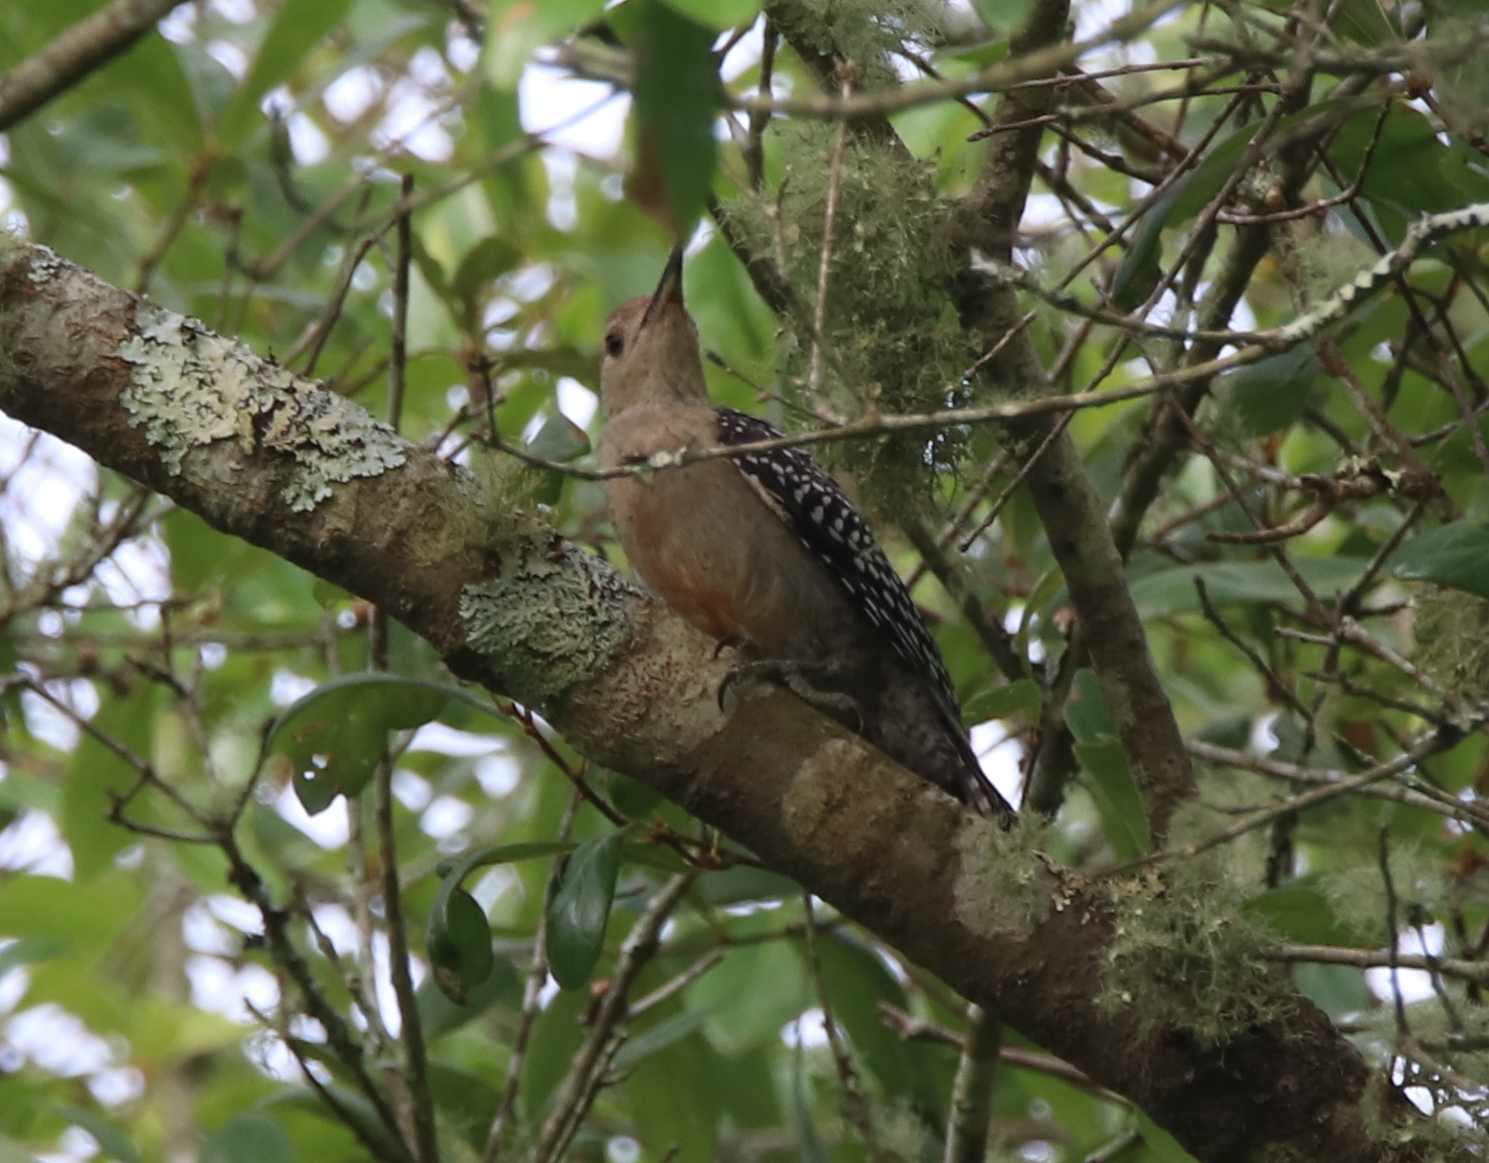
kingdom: Animalia
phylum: Chordata
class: Aves
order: Piciformes
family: Picidae
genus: Melanerpes
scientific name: Melanerpes carolinus
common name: Red-bellied woodpecker
